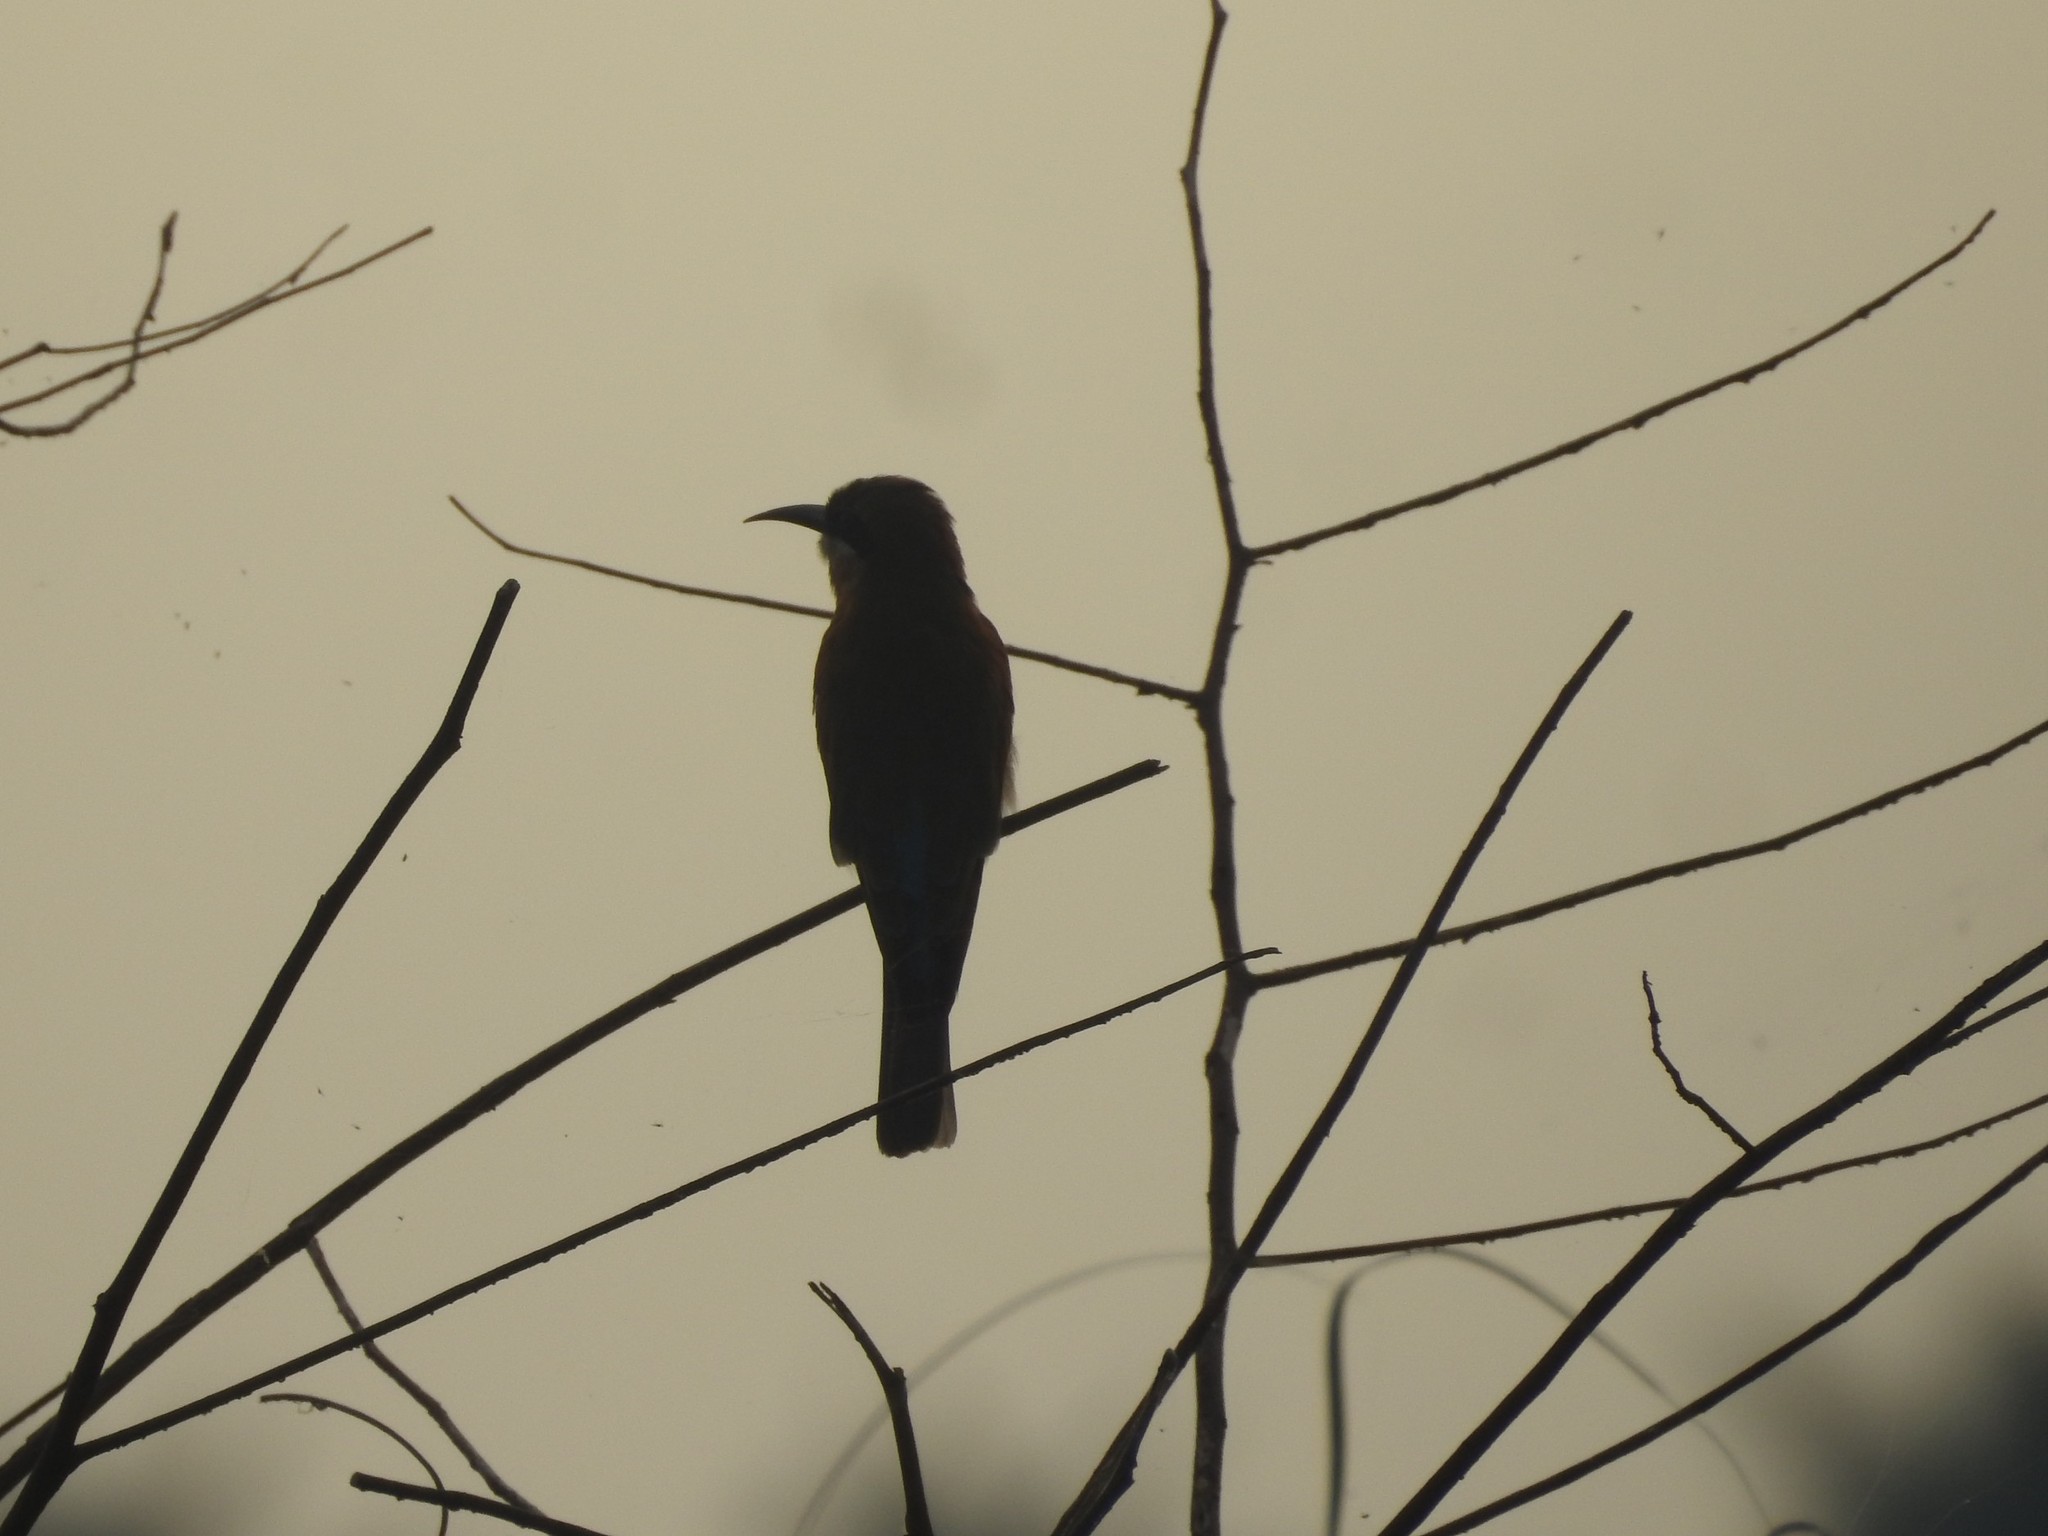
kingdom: Animalia
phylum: Chordata
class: Aves
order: Coraciiformes
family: Meropidae
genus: Merops
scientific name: Merops philippinus
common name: Blue-tailed bee-eater
